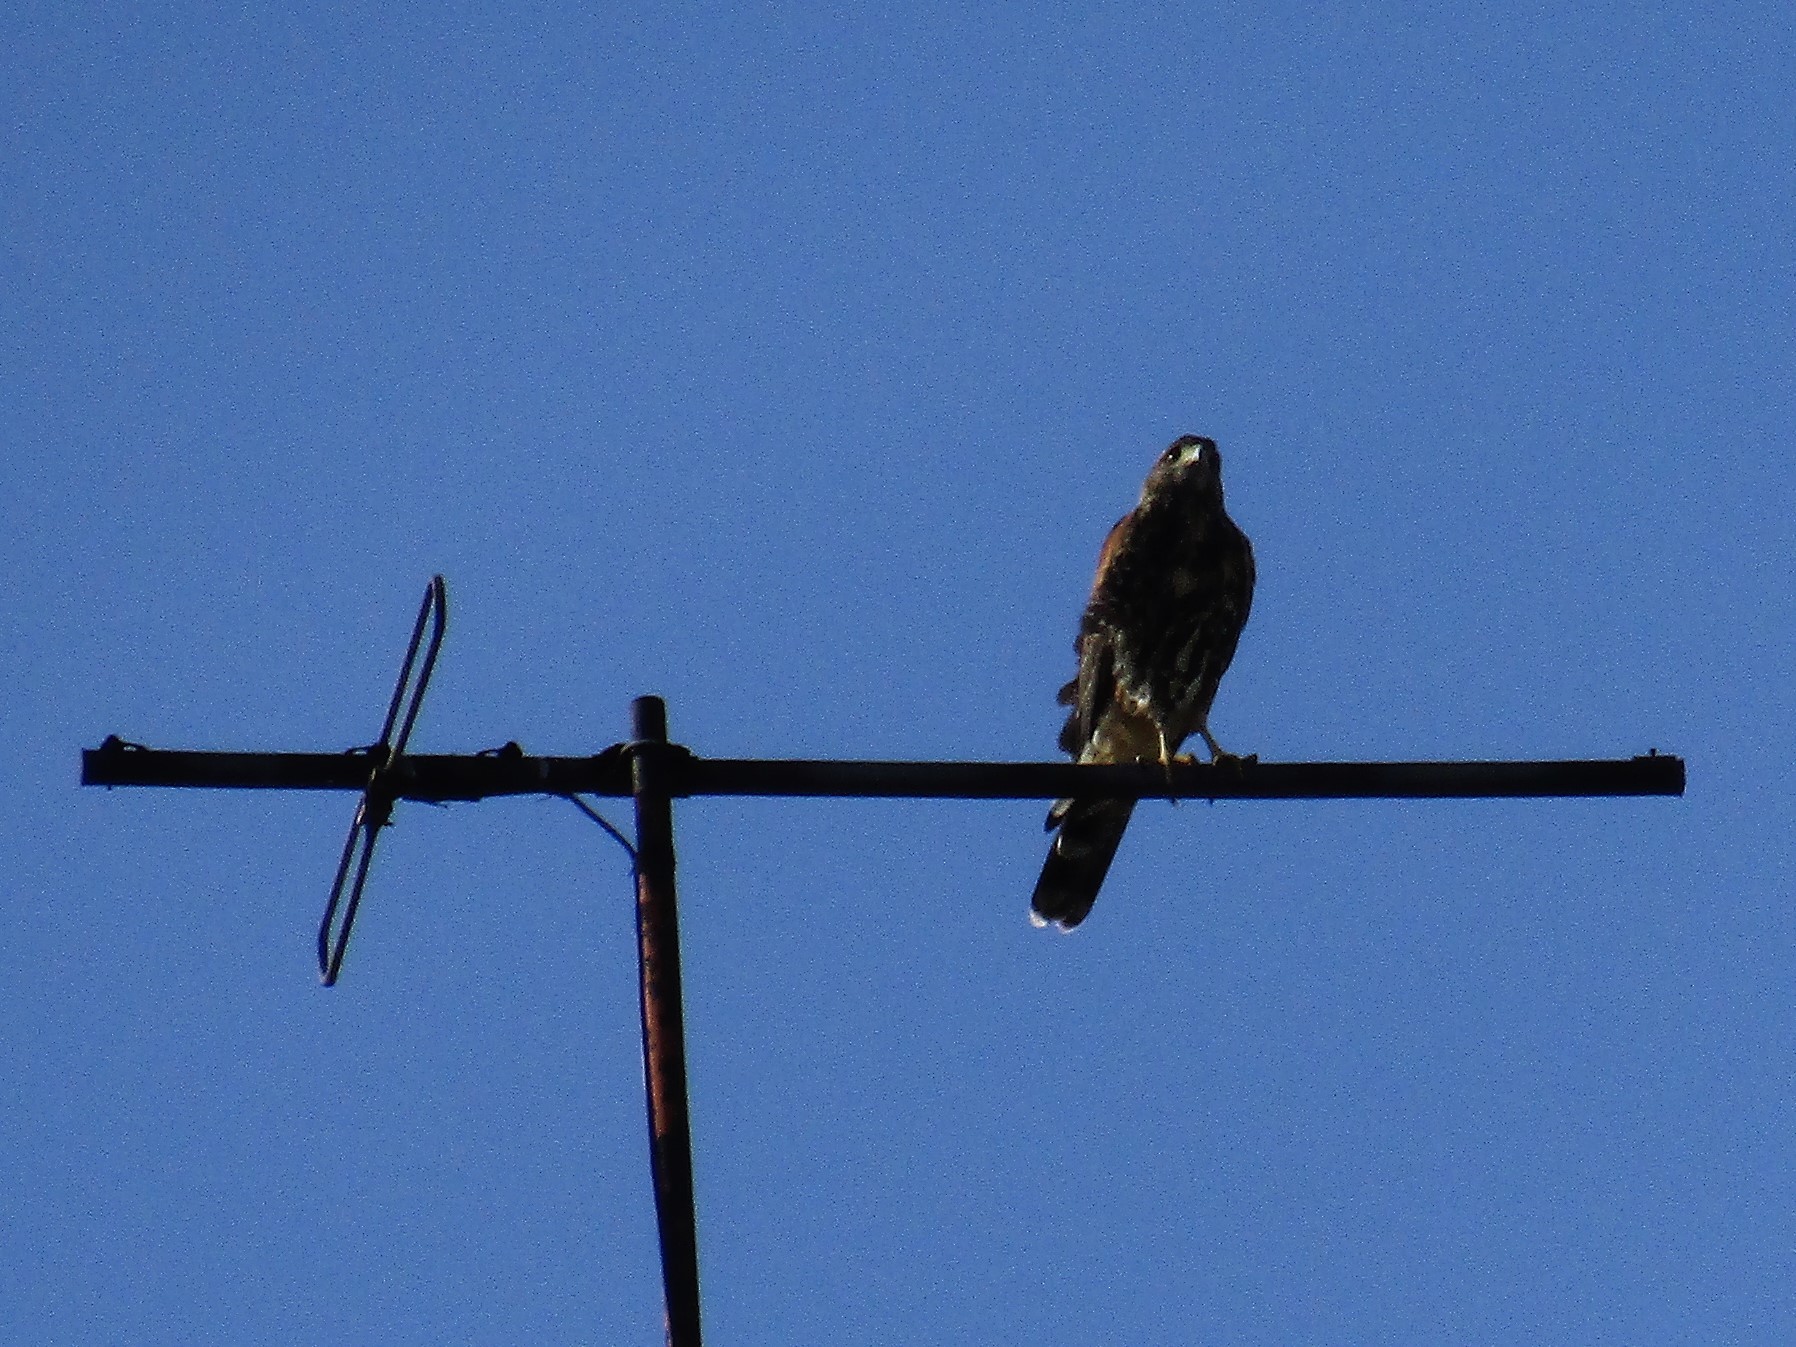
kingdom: Animalia
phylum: Chordata
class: Aves
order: Accipitriformes
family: Accipitridae
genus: Parabuteo
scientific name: Parabuteo unicinctus
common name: Harris's hawk
